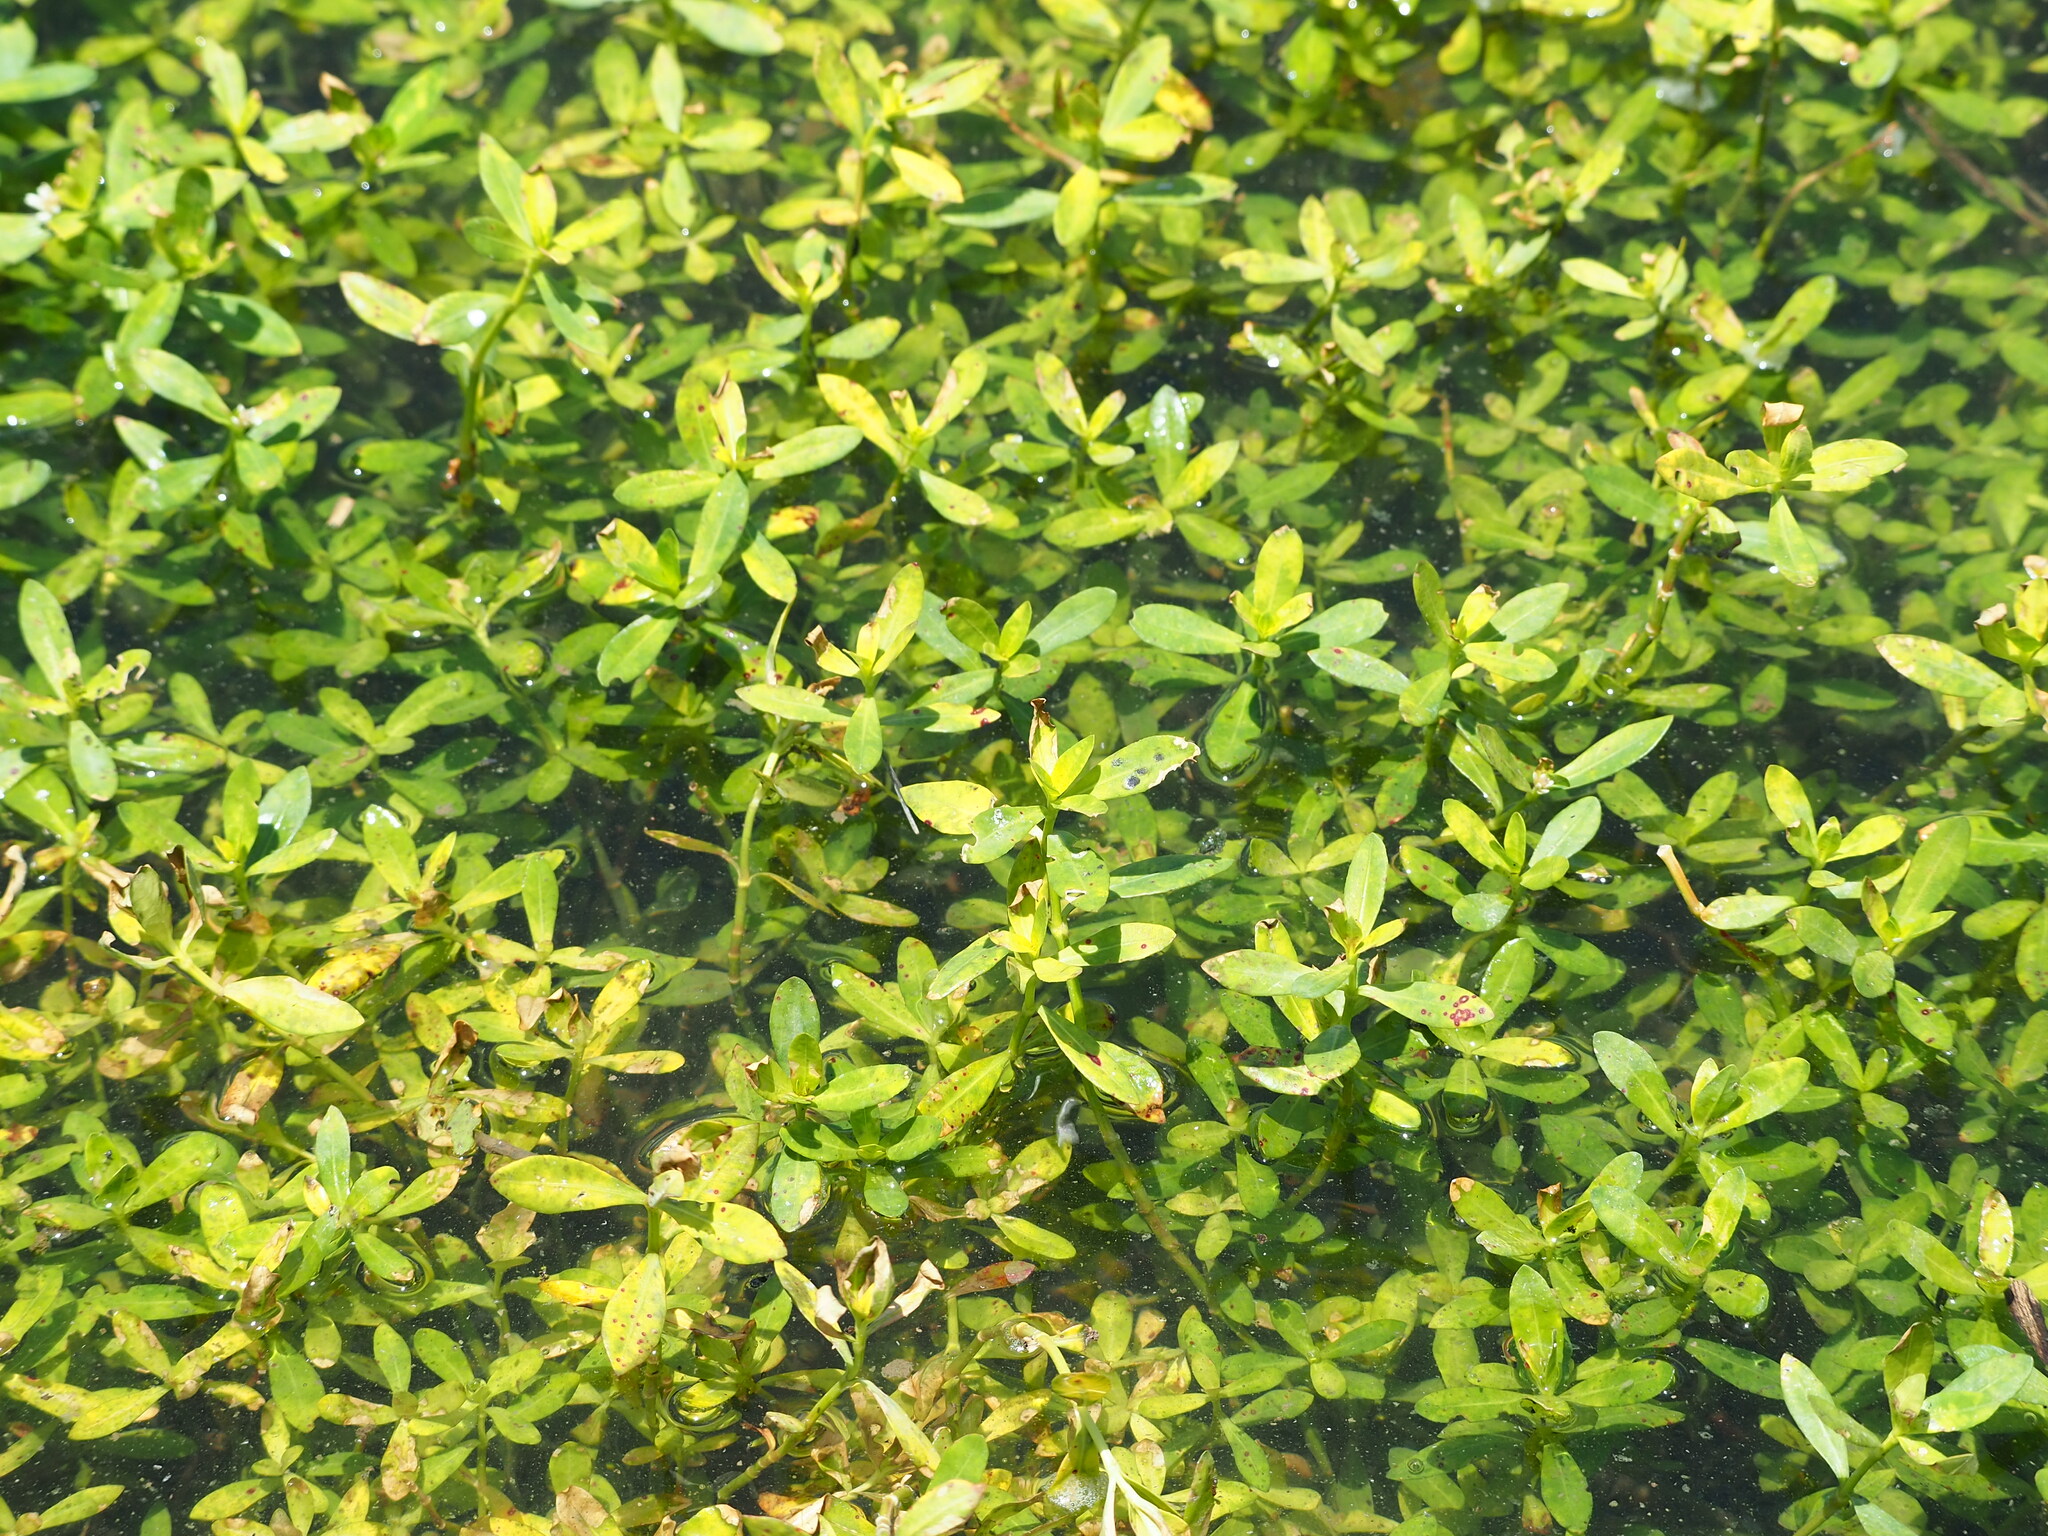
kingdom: Plantae
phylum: Tracheophyta
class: Magnoliopsida
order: Caryophyllales
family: Amaranthaceae
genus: Alternanthera
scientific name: Alternanthera philoxeroides
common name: Alligatorweed
